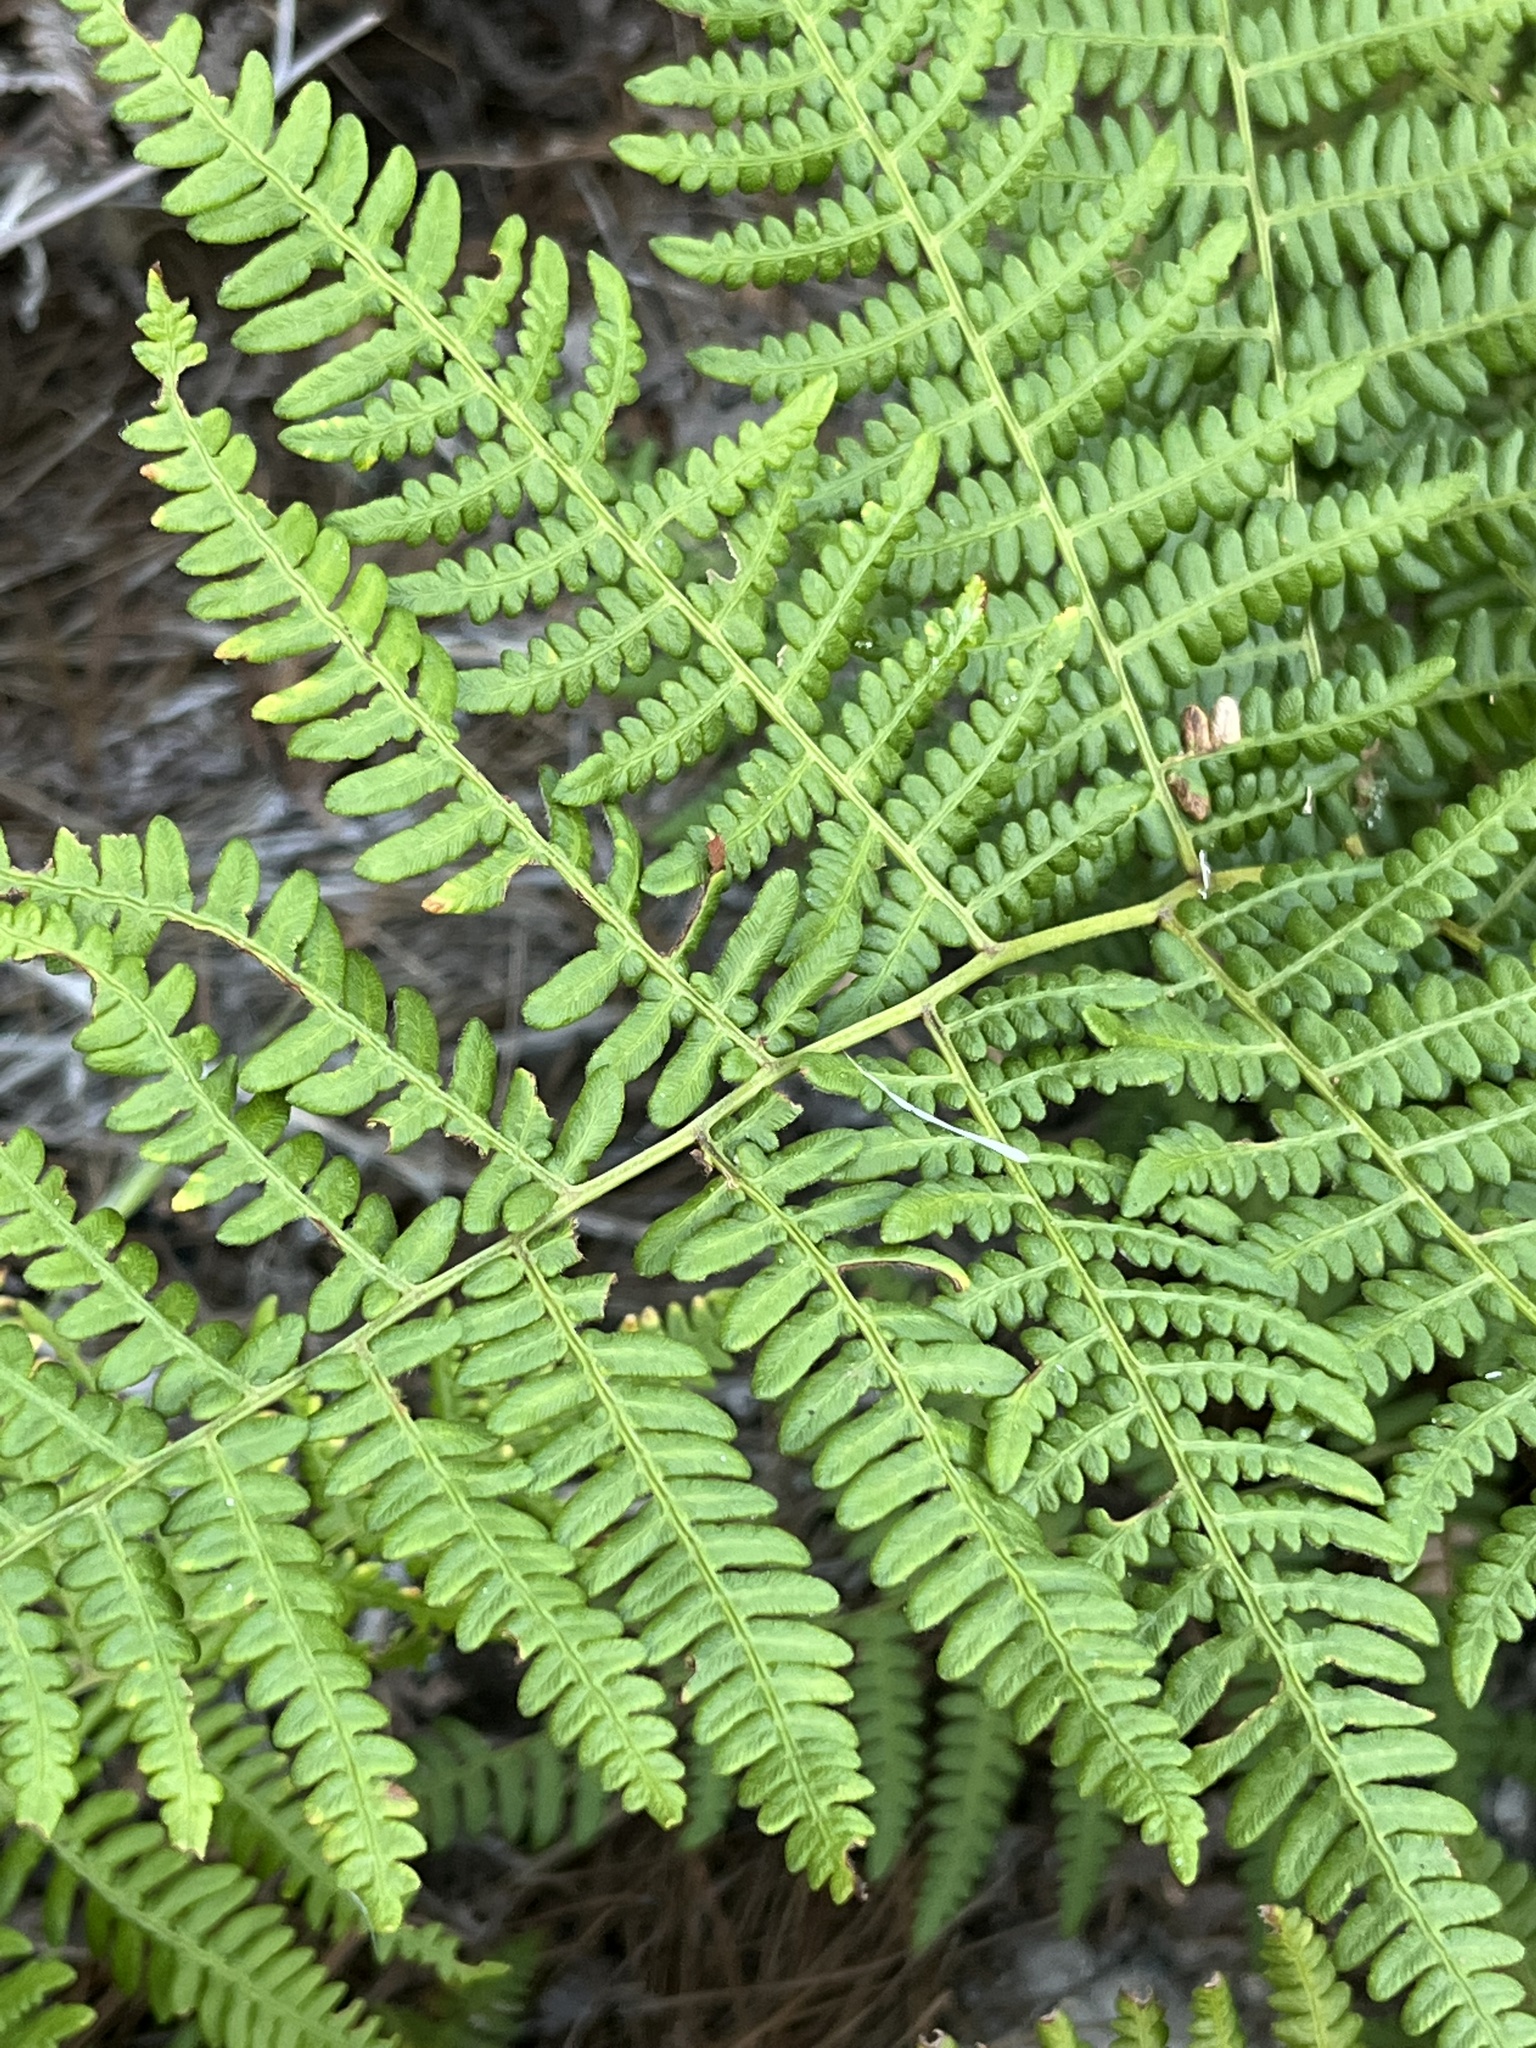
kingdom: Plantae
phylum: Tracheophyta
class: Polypodiopsida
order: Polypodiales
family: Dennstaedtiaceae
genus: Pteridium
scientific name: Pteridium aquilinum
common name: Bracken
